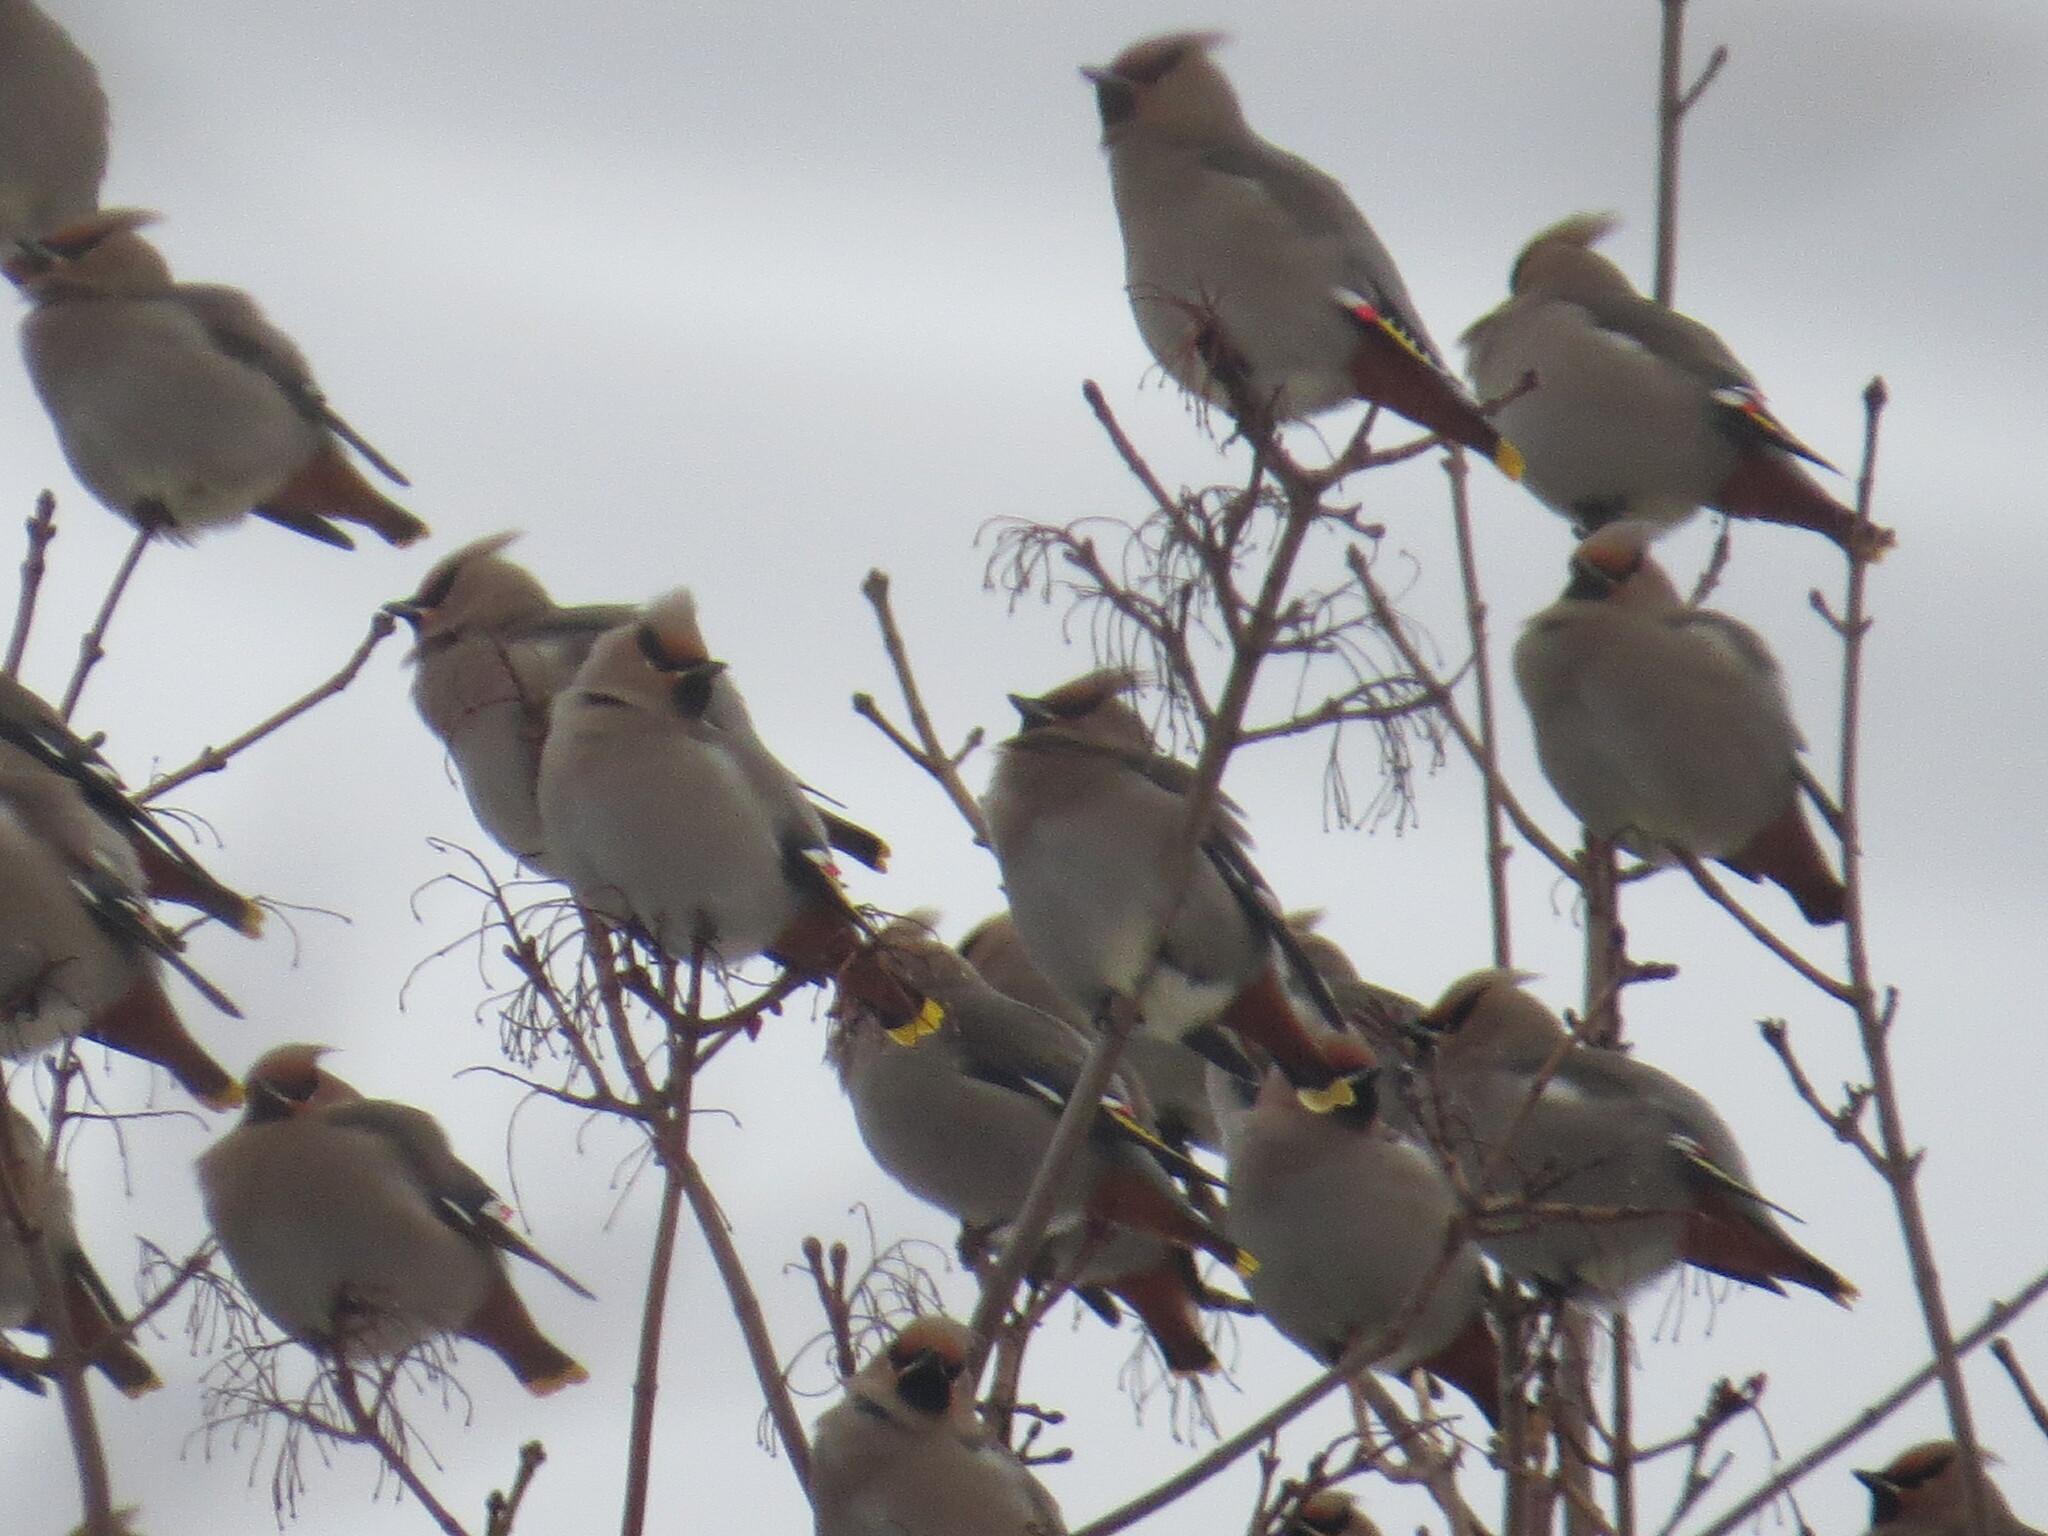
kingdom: Animalia
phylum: Chordata
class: Aves
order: Passeriformes
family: Bombycillidae
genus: Bombycilla
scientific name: Bombycilla garrulus
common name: Bohemian waxwing
